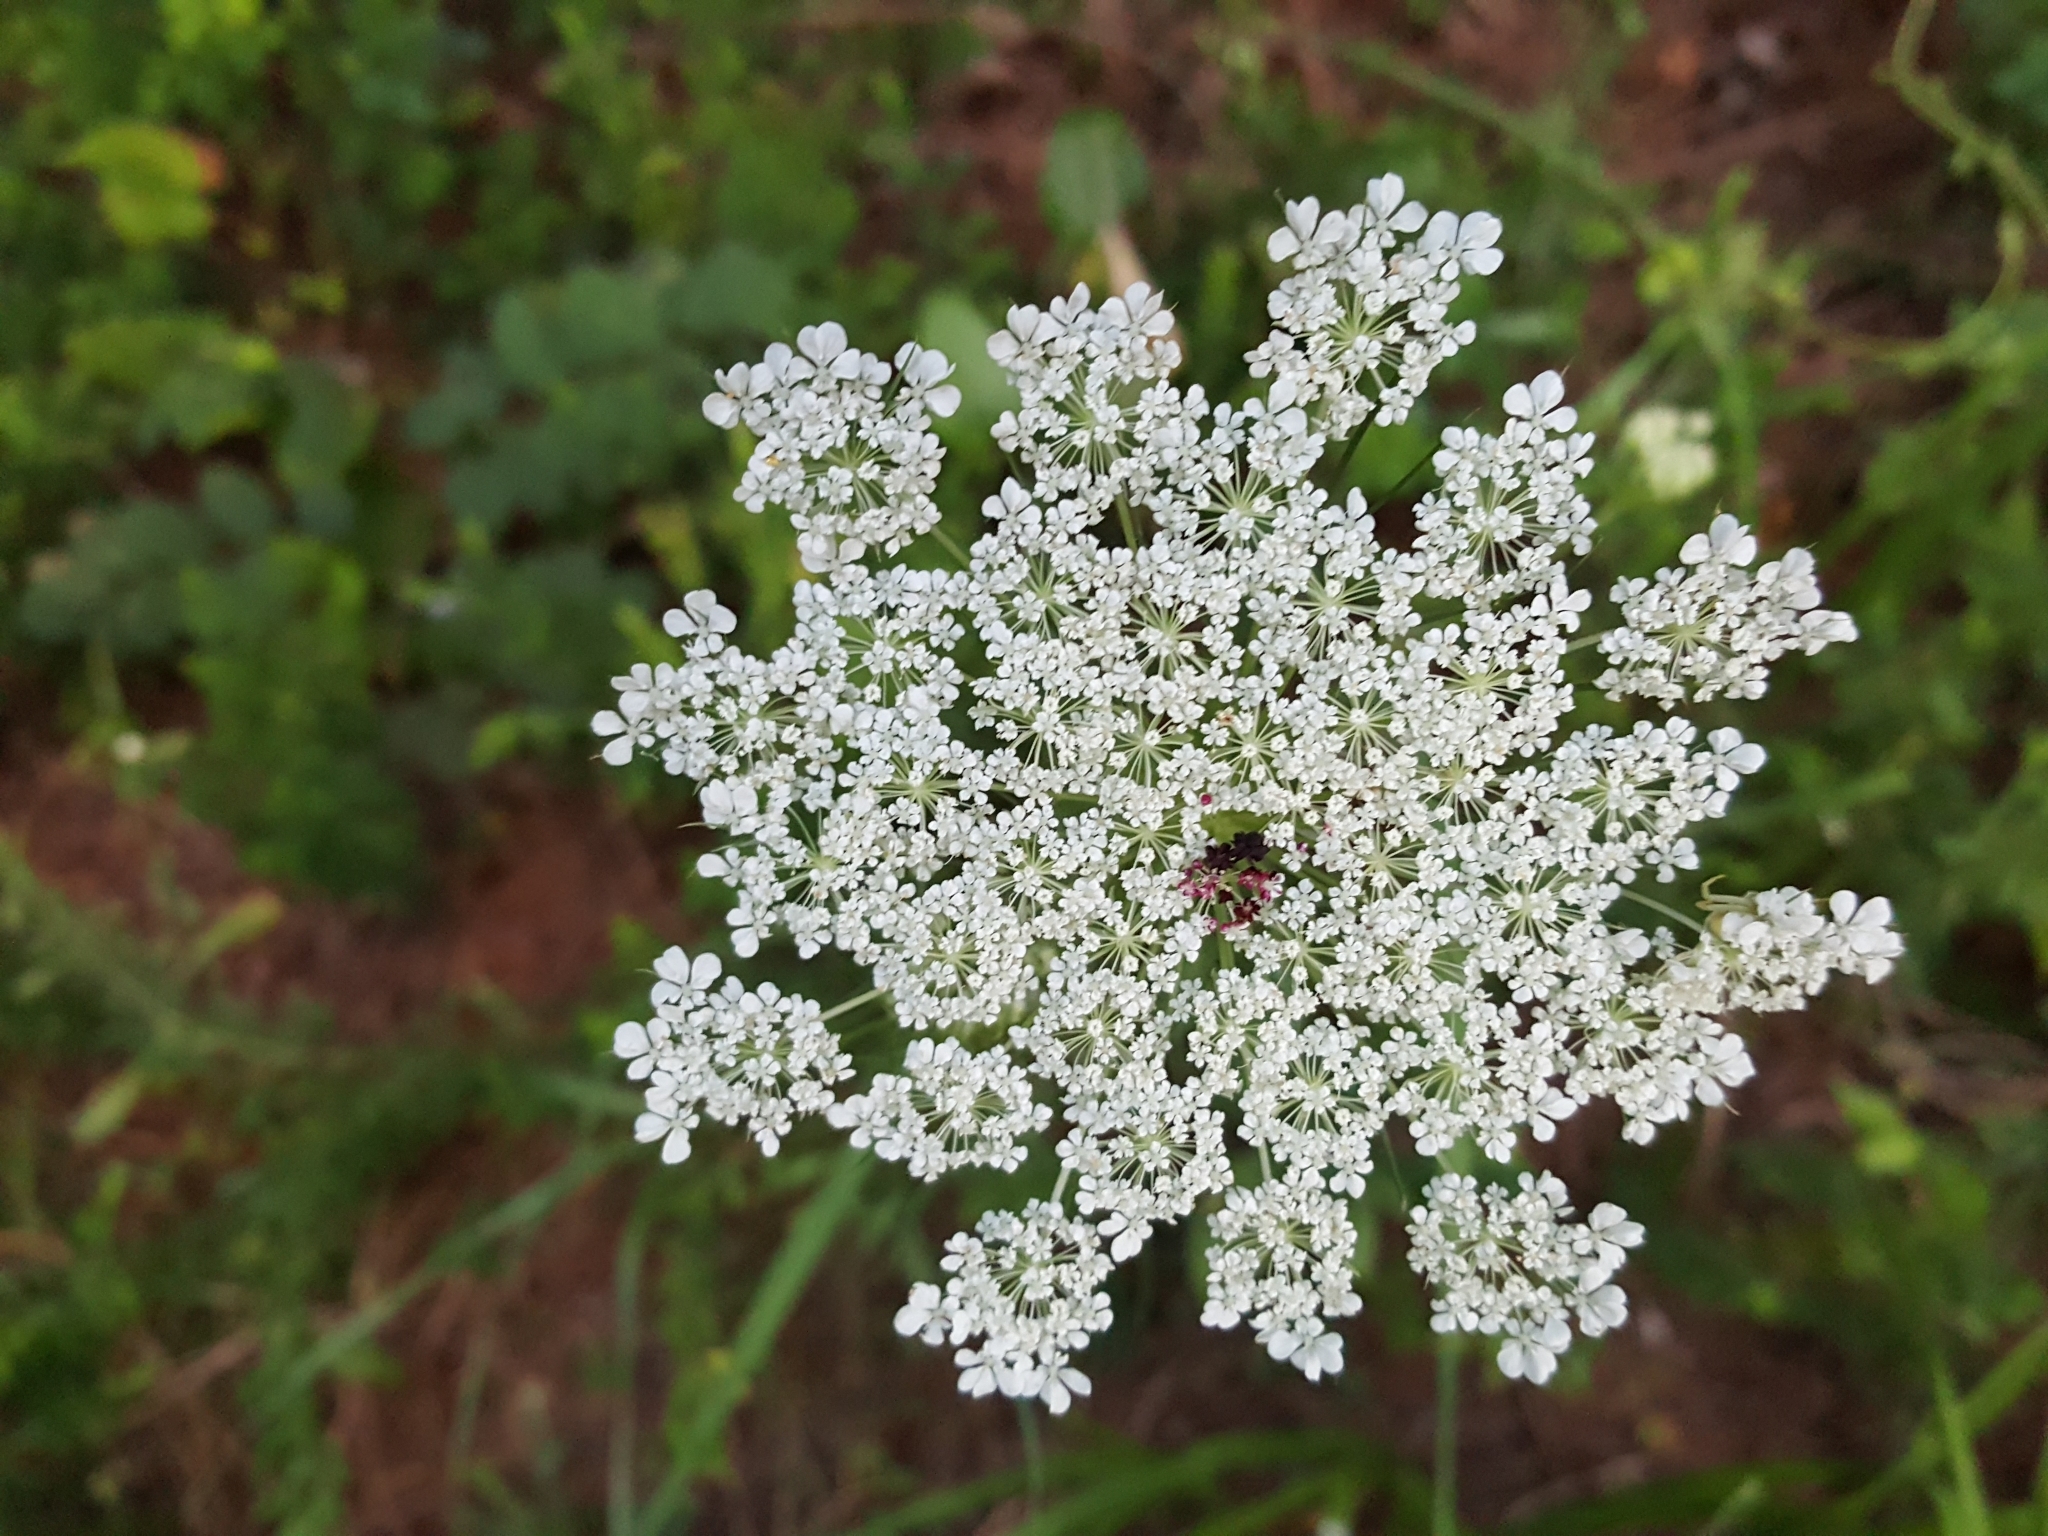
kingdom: Plantae
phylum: Tracheophyta
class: Magnoliopsida
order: Apiales
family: Apiaceae
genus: Daucus
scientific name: Daucus carota
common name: Wild carrot
